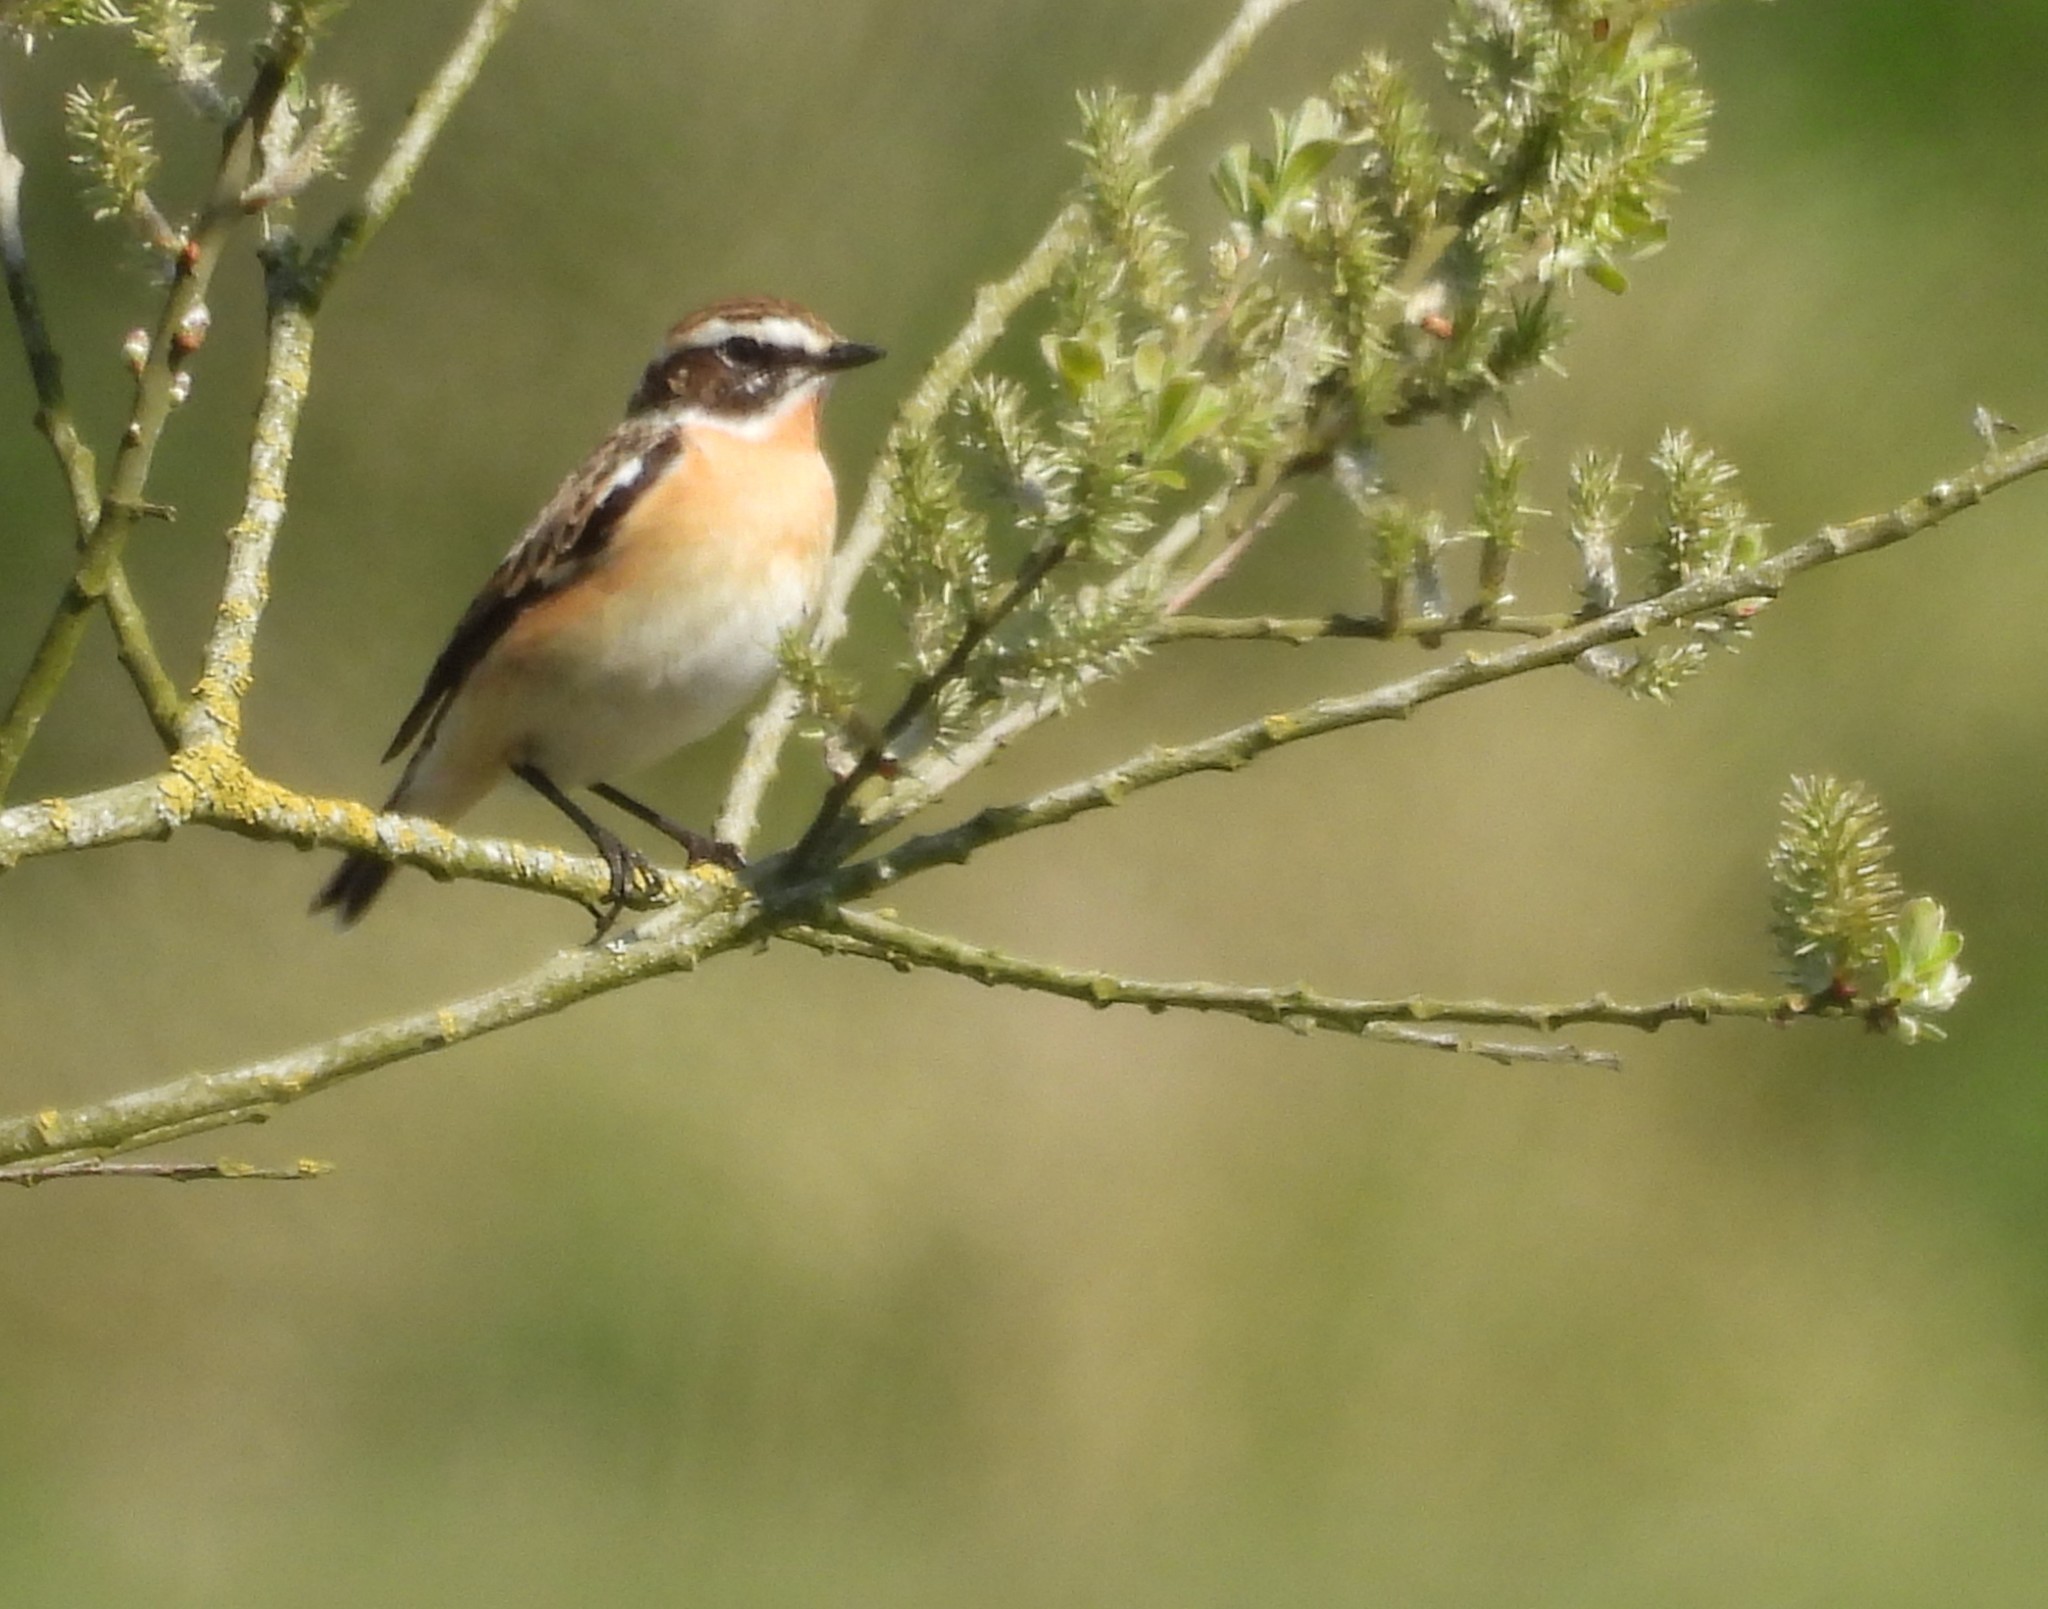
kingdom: Animalia
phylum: Chordata
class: Aves
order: Passeriformes
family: Muscicapidae
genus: Saxicola
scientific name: Saxicola rubetra
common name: Whinchat
